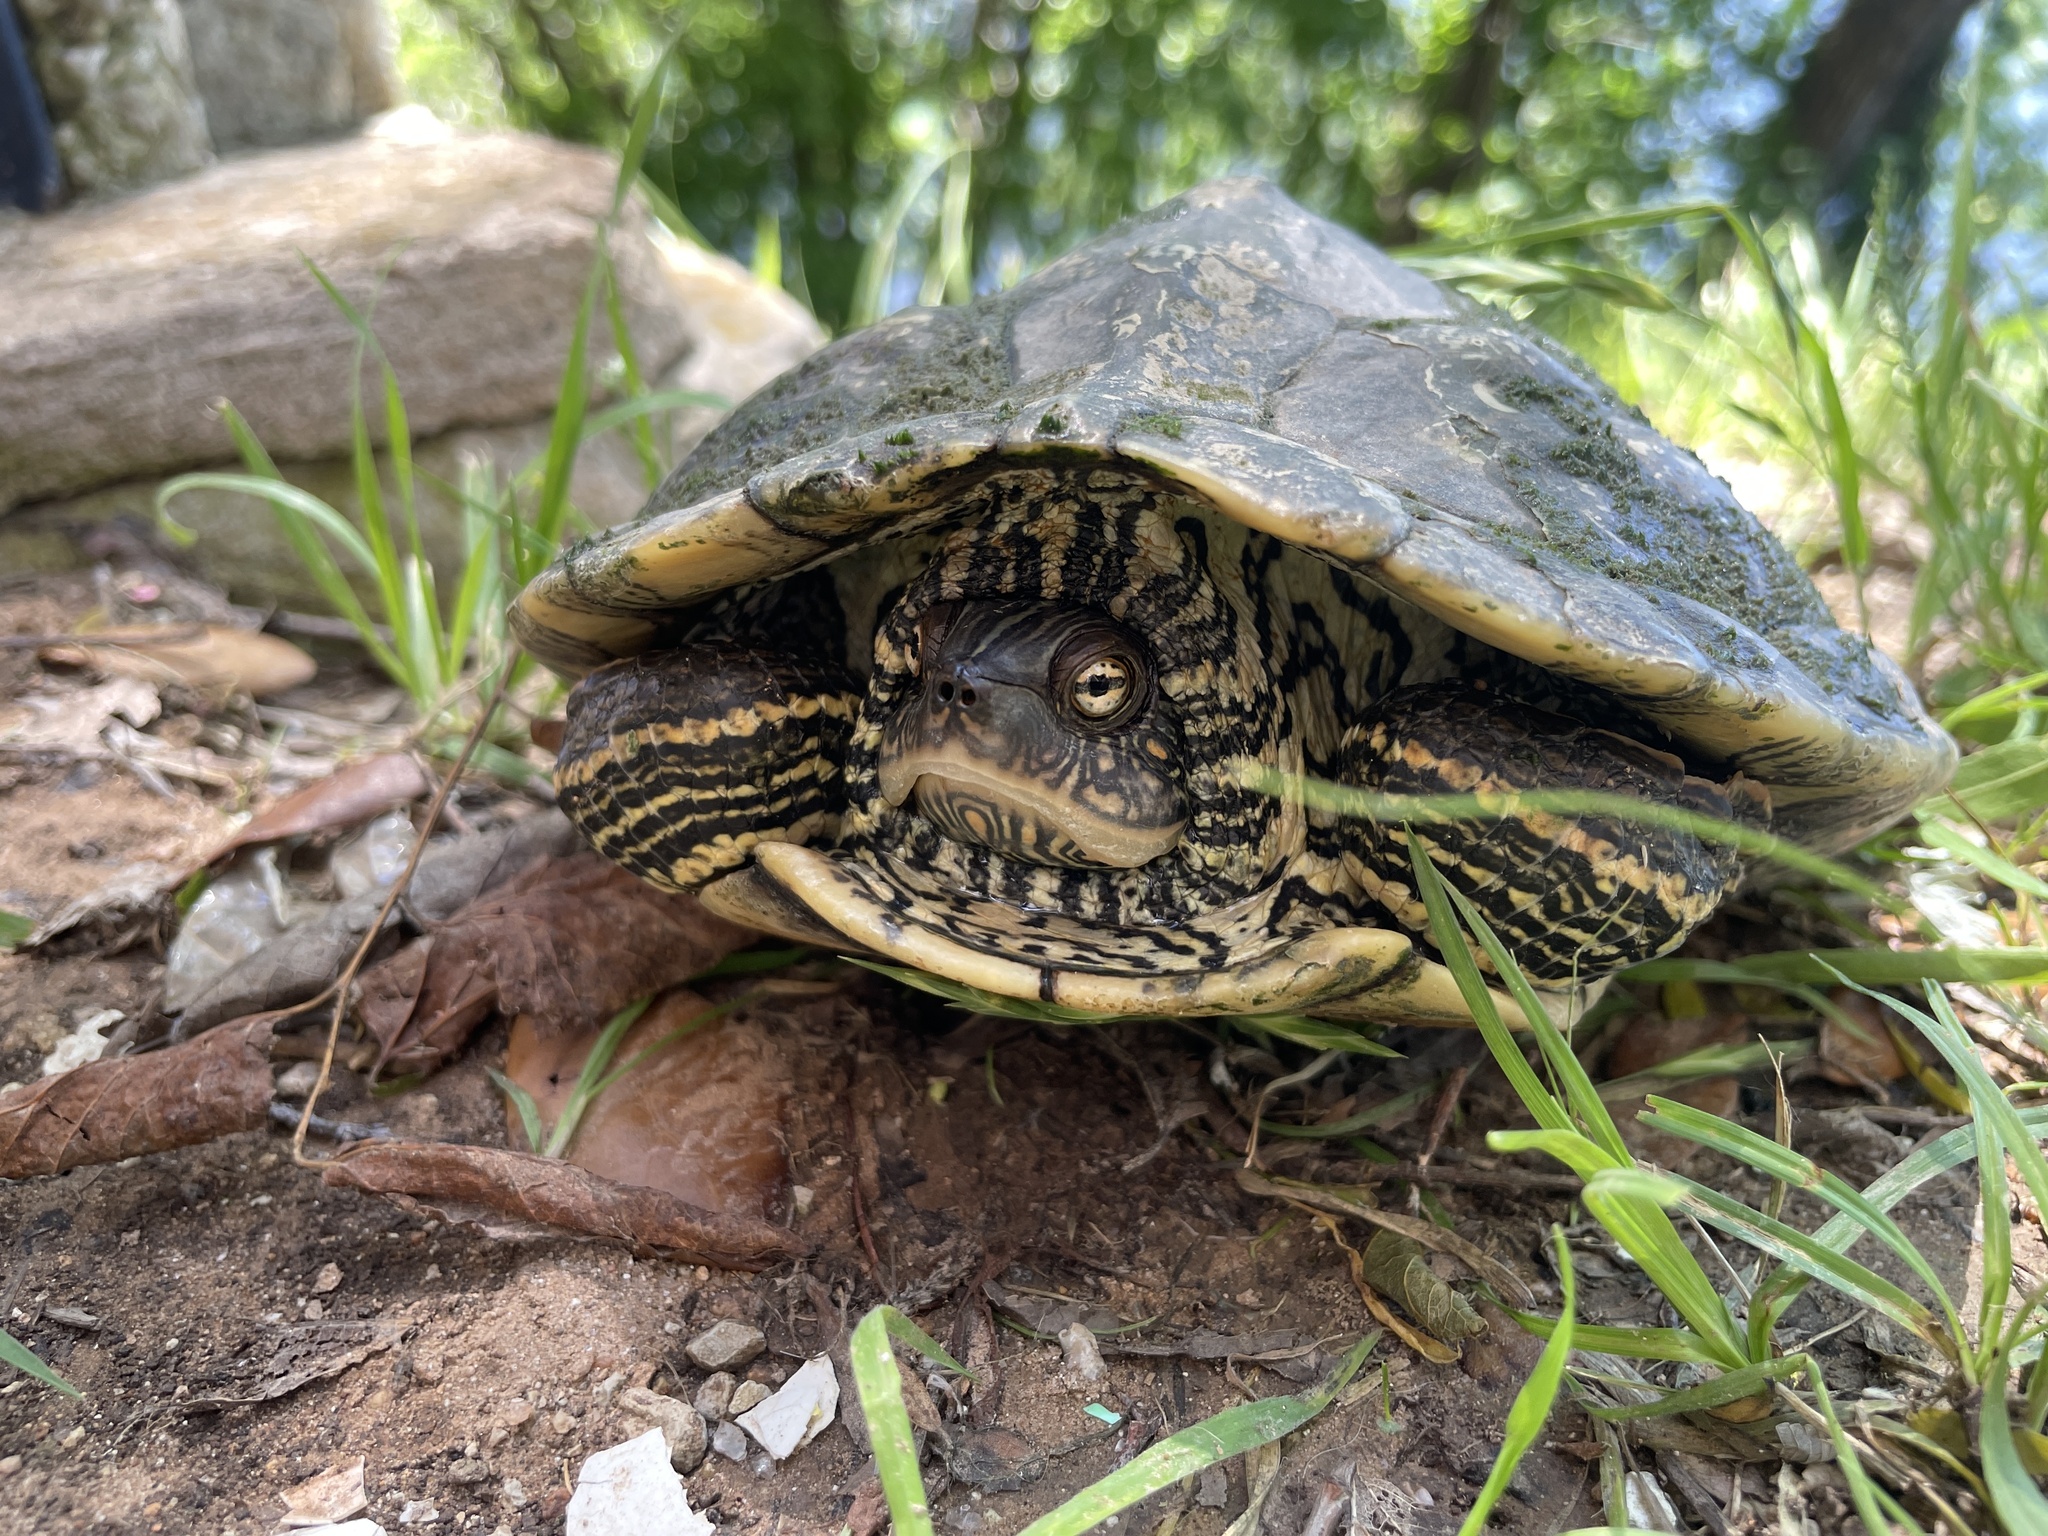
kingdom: Animalia
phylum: Chordata
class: Testudines
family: Emydidae
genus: Graptemys
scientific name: Graptemys versa
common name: Texas map turtle
